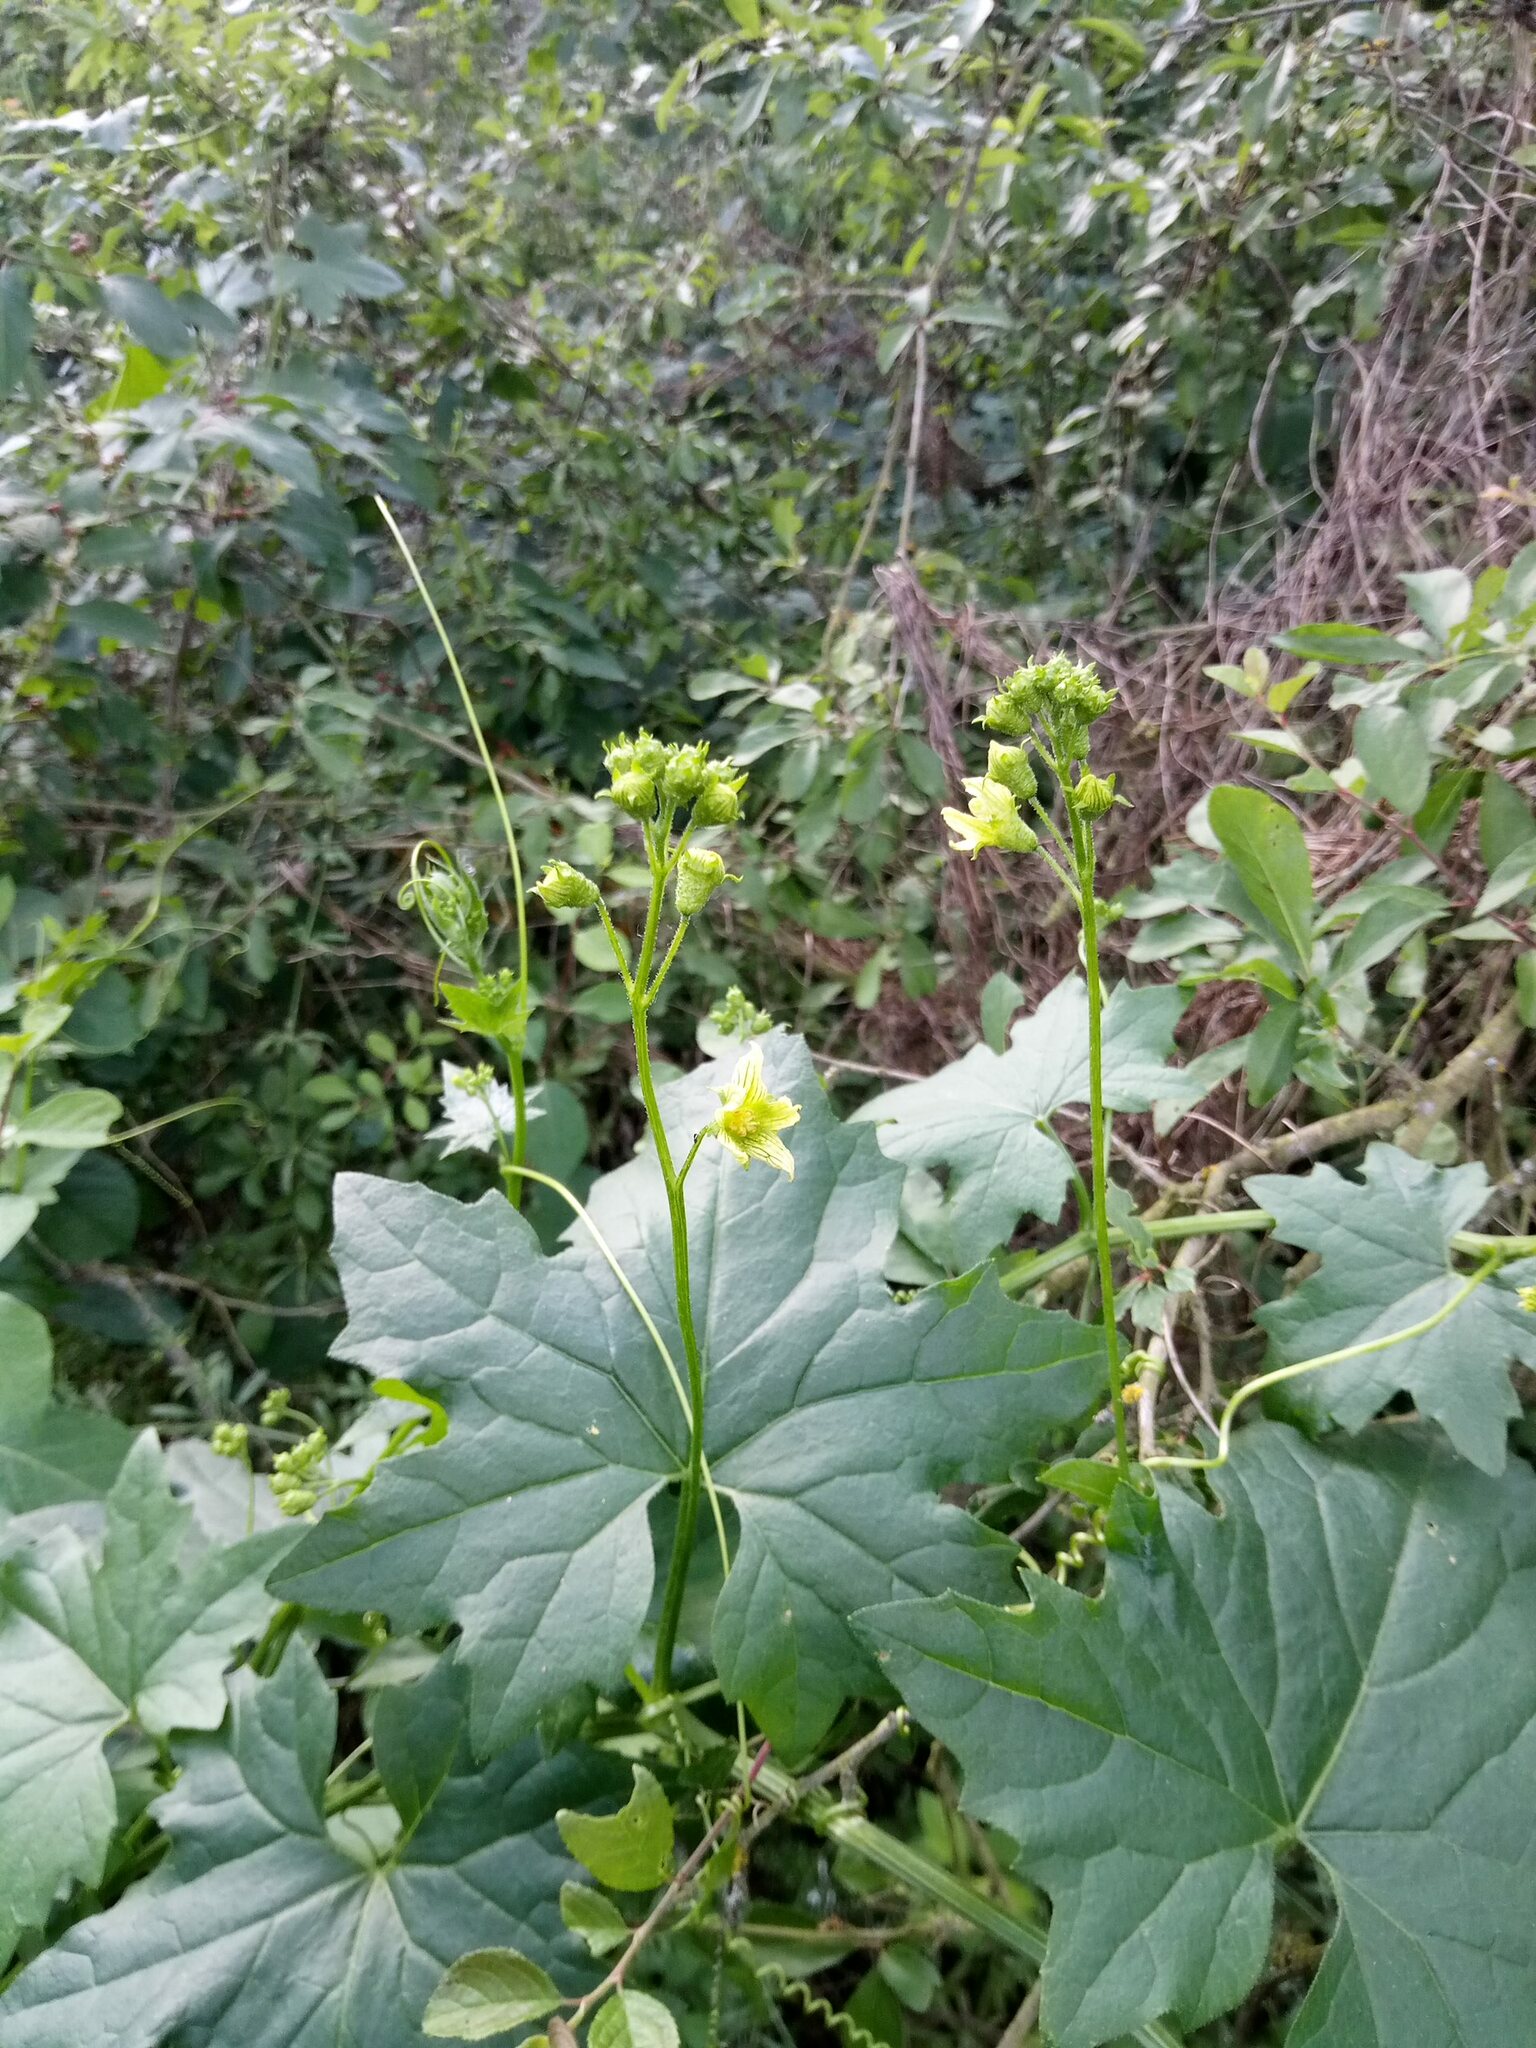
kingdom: Plantae
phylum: Tracheophyta
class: Magnoliopsida
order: Cucurbitales
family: Cucurbitaceae
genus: Bryonia
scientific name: Bryonia alba
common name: White bryony
